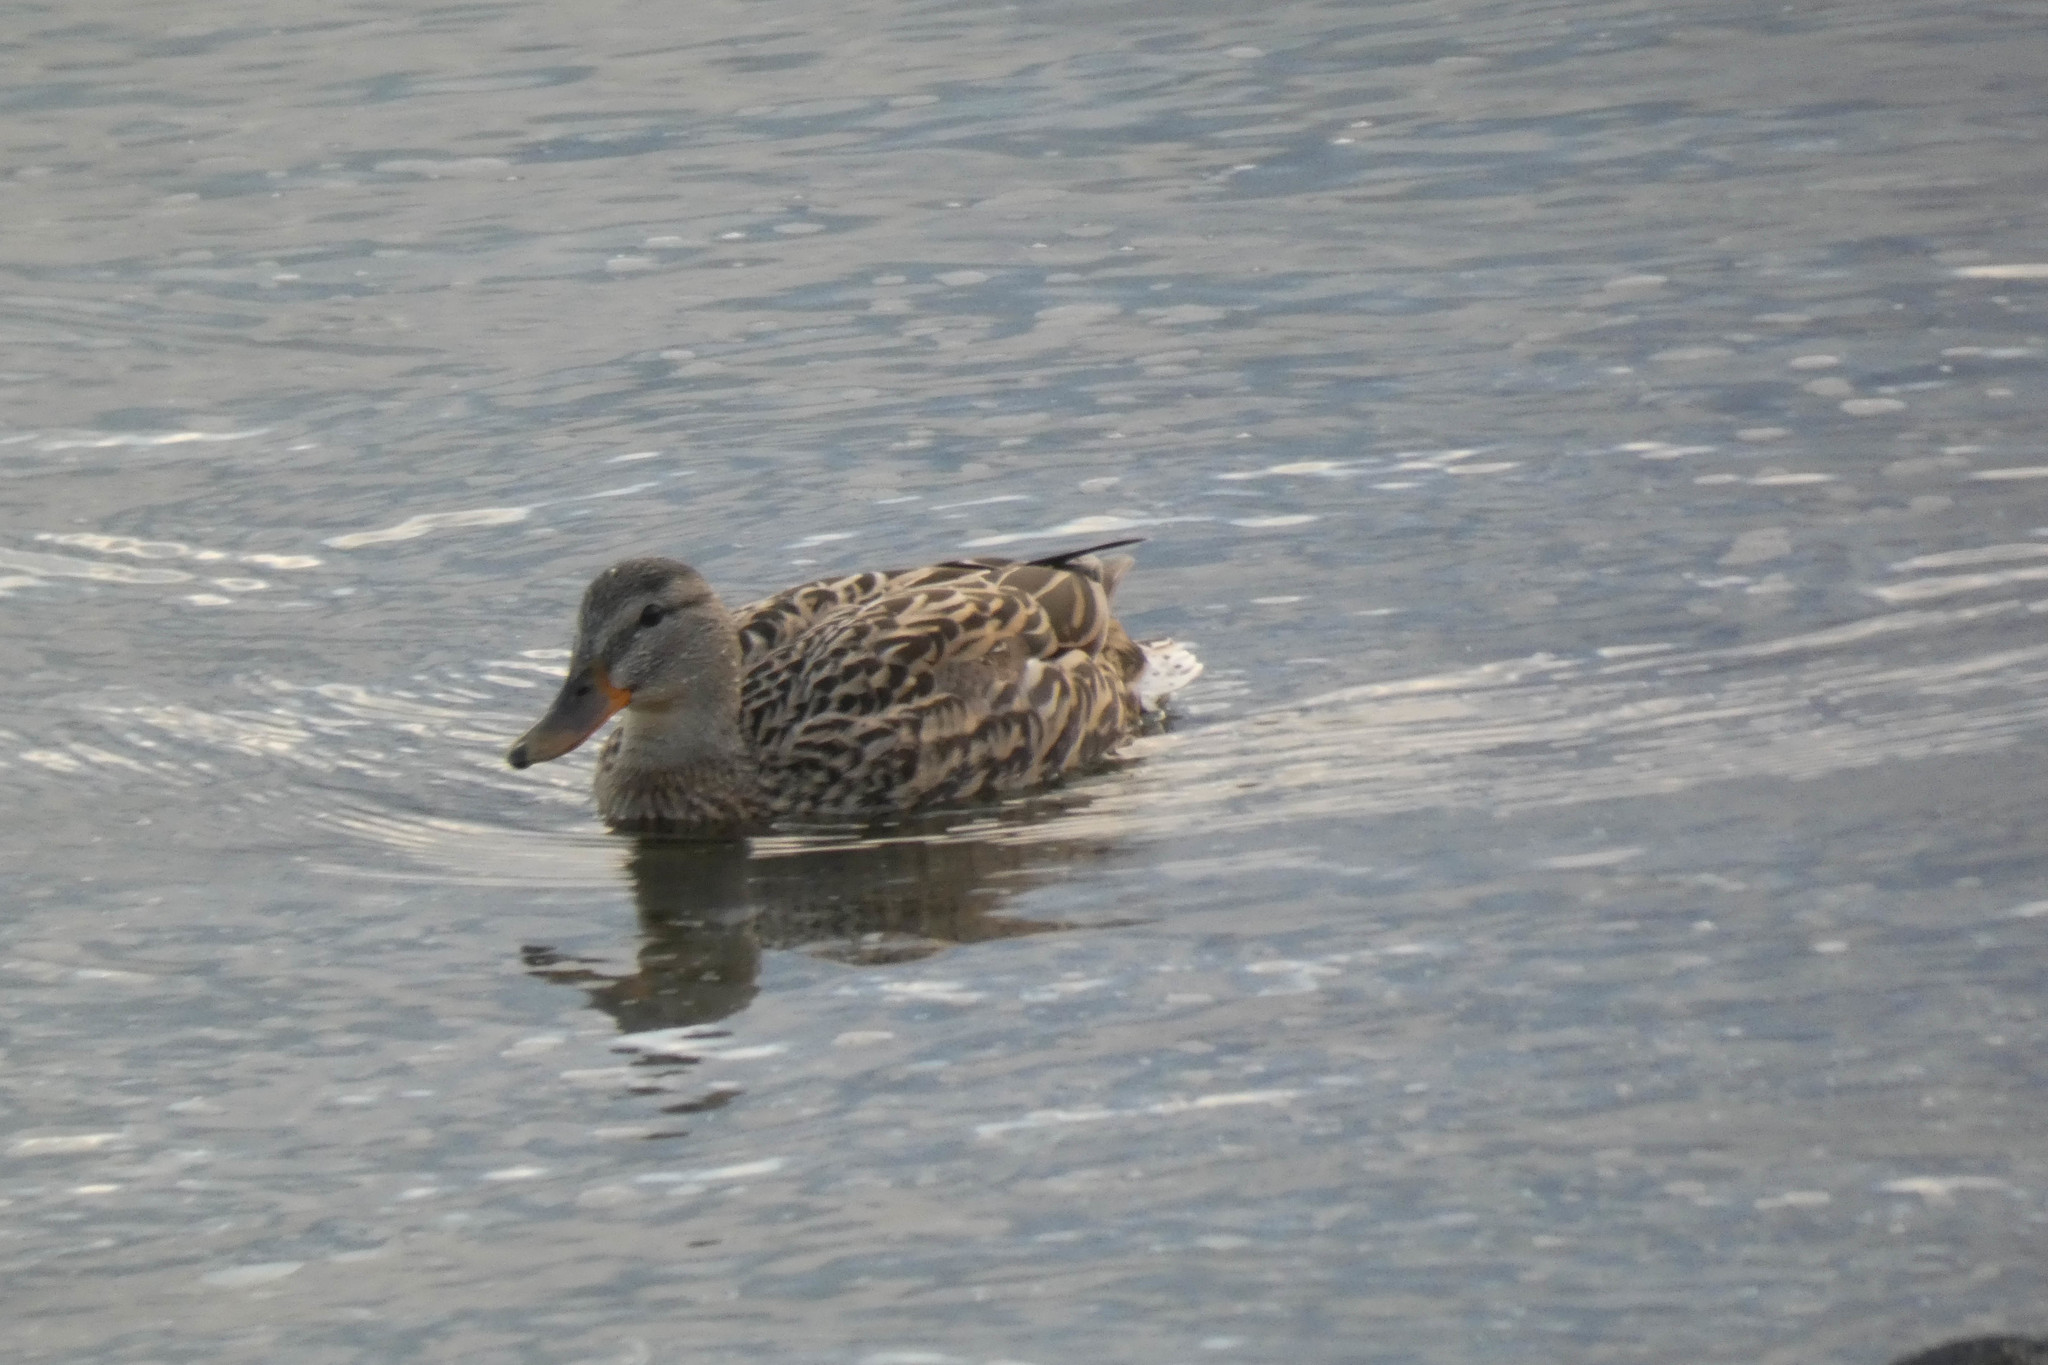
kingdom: Animalia
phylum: Chordata
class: Aves
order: Anseriformes
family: Anatidae
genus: Anas
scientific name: Anas platyrhynchos
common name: Mallard
